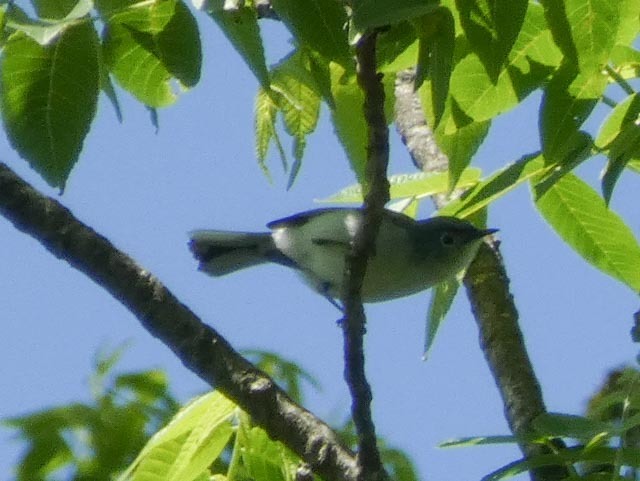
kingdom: Animalia
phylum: Chordata
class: Aves
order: Passeriformes
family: Polioptilidae
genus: Polioptila
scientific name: Polioptila caerulea
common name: Blue-gray gnatcatcher
